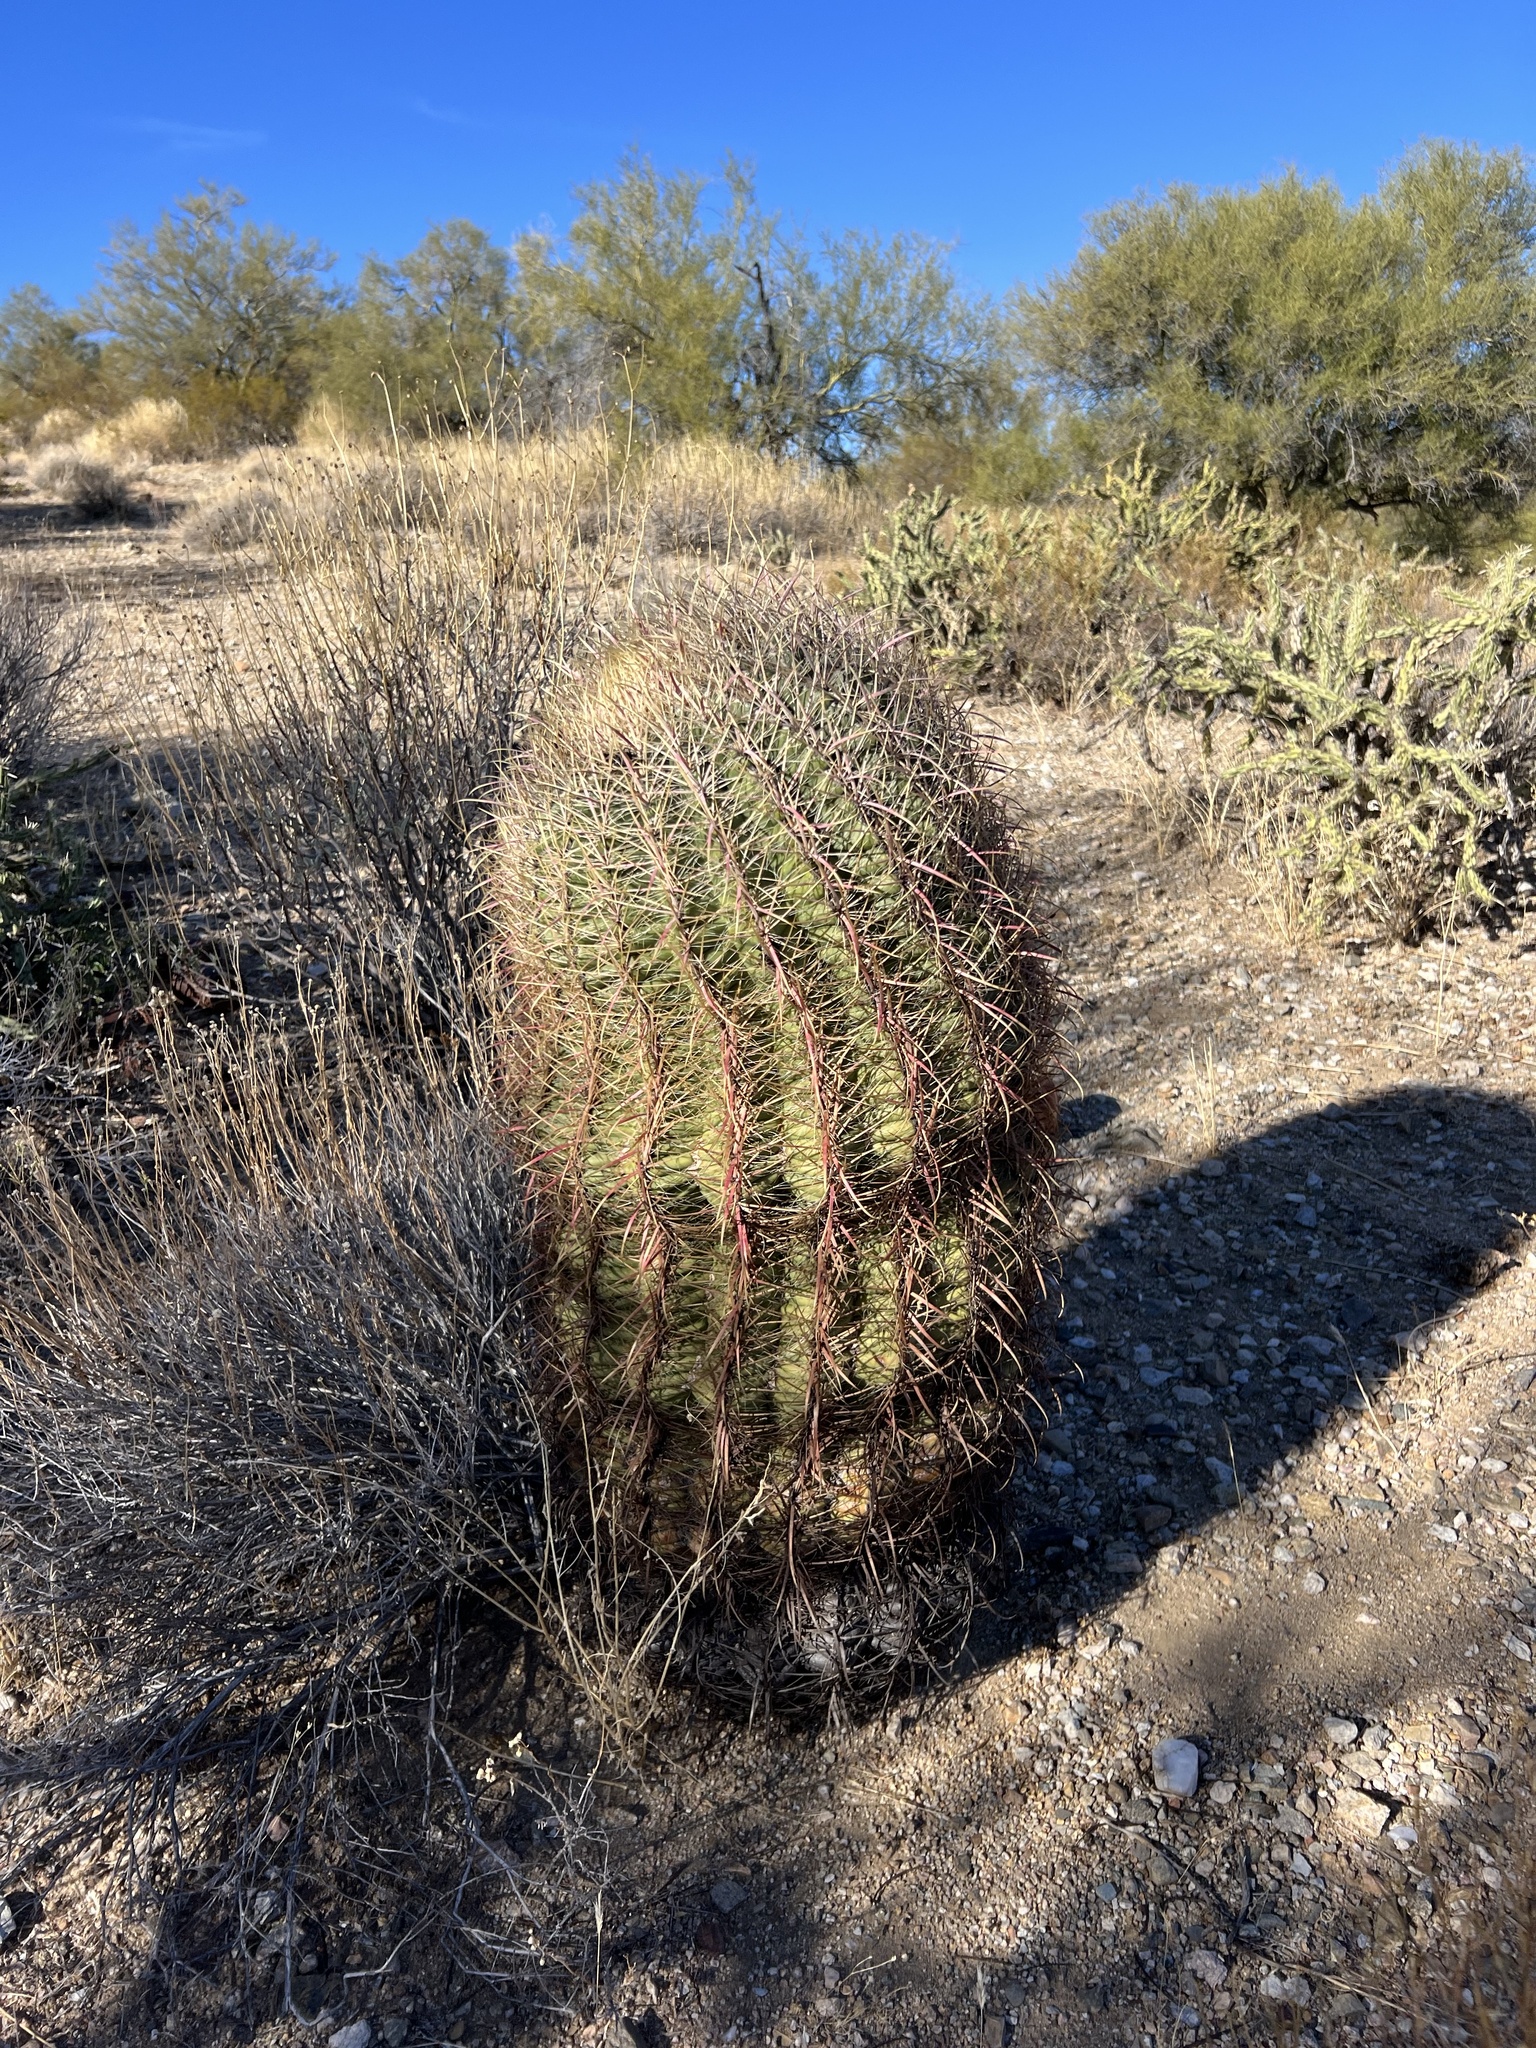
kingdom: Plantae
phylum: Tracheophyta
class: Magnoliopsida
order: Caryophyllales
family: Cactaceae
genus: Ferocactus
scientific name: Ferocactus cylindraceus
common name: California barrel cactus
